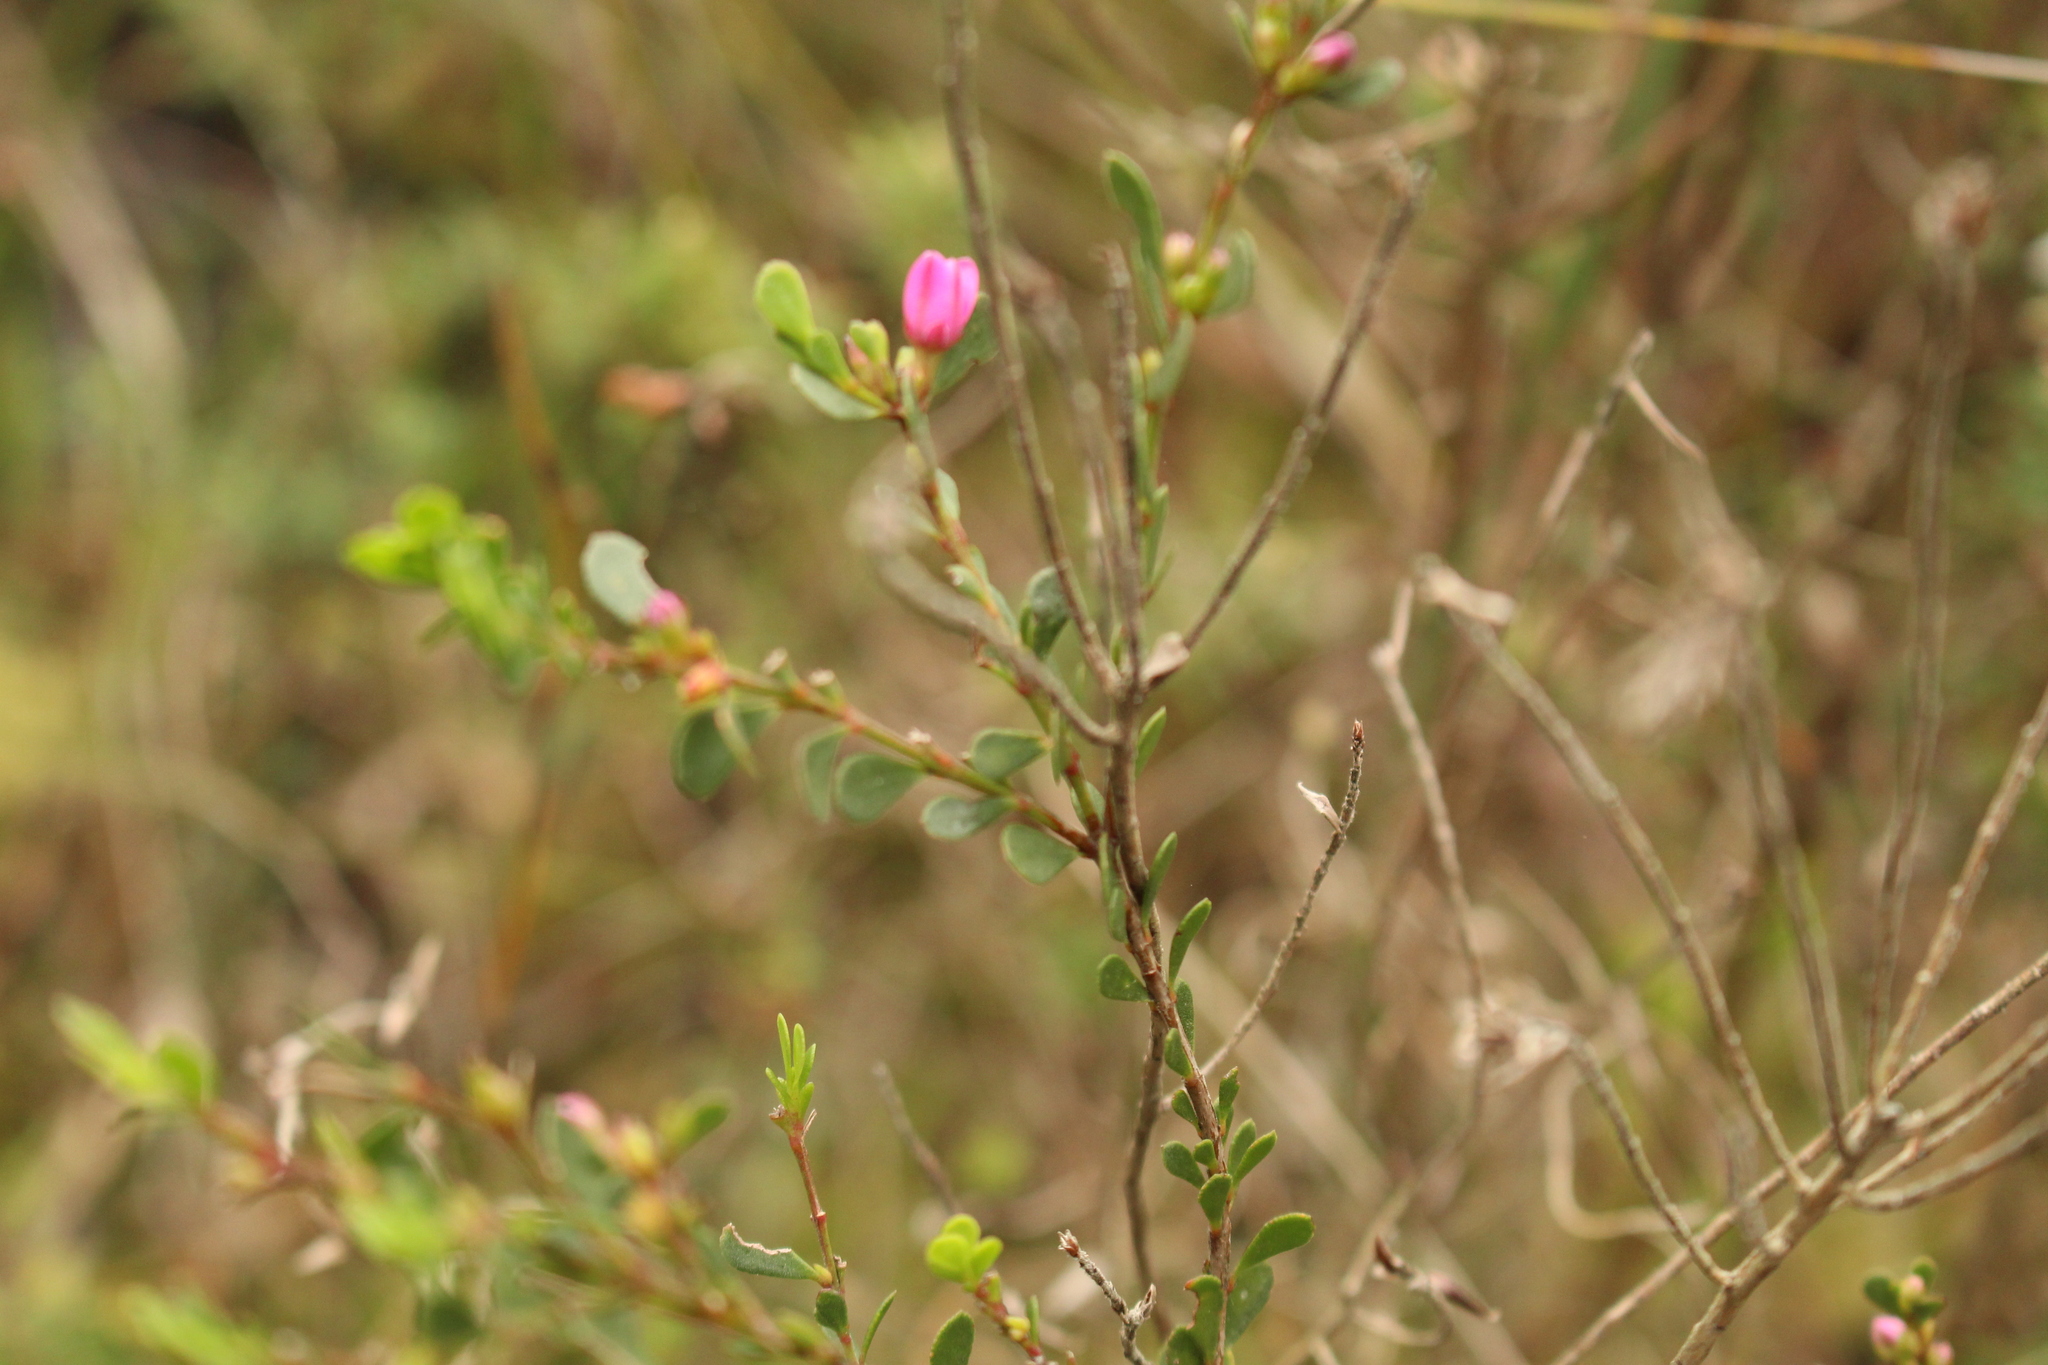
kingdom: Plantae
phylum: Tracheophyta
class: Magnoliopsida
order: Sapindales
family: Rutaceae
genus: Boronia
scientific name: Boronia crenulata
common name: Aniseed boronia
